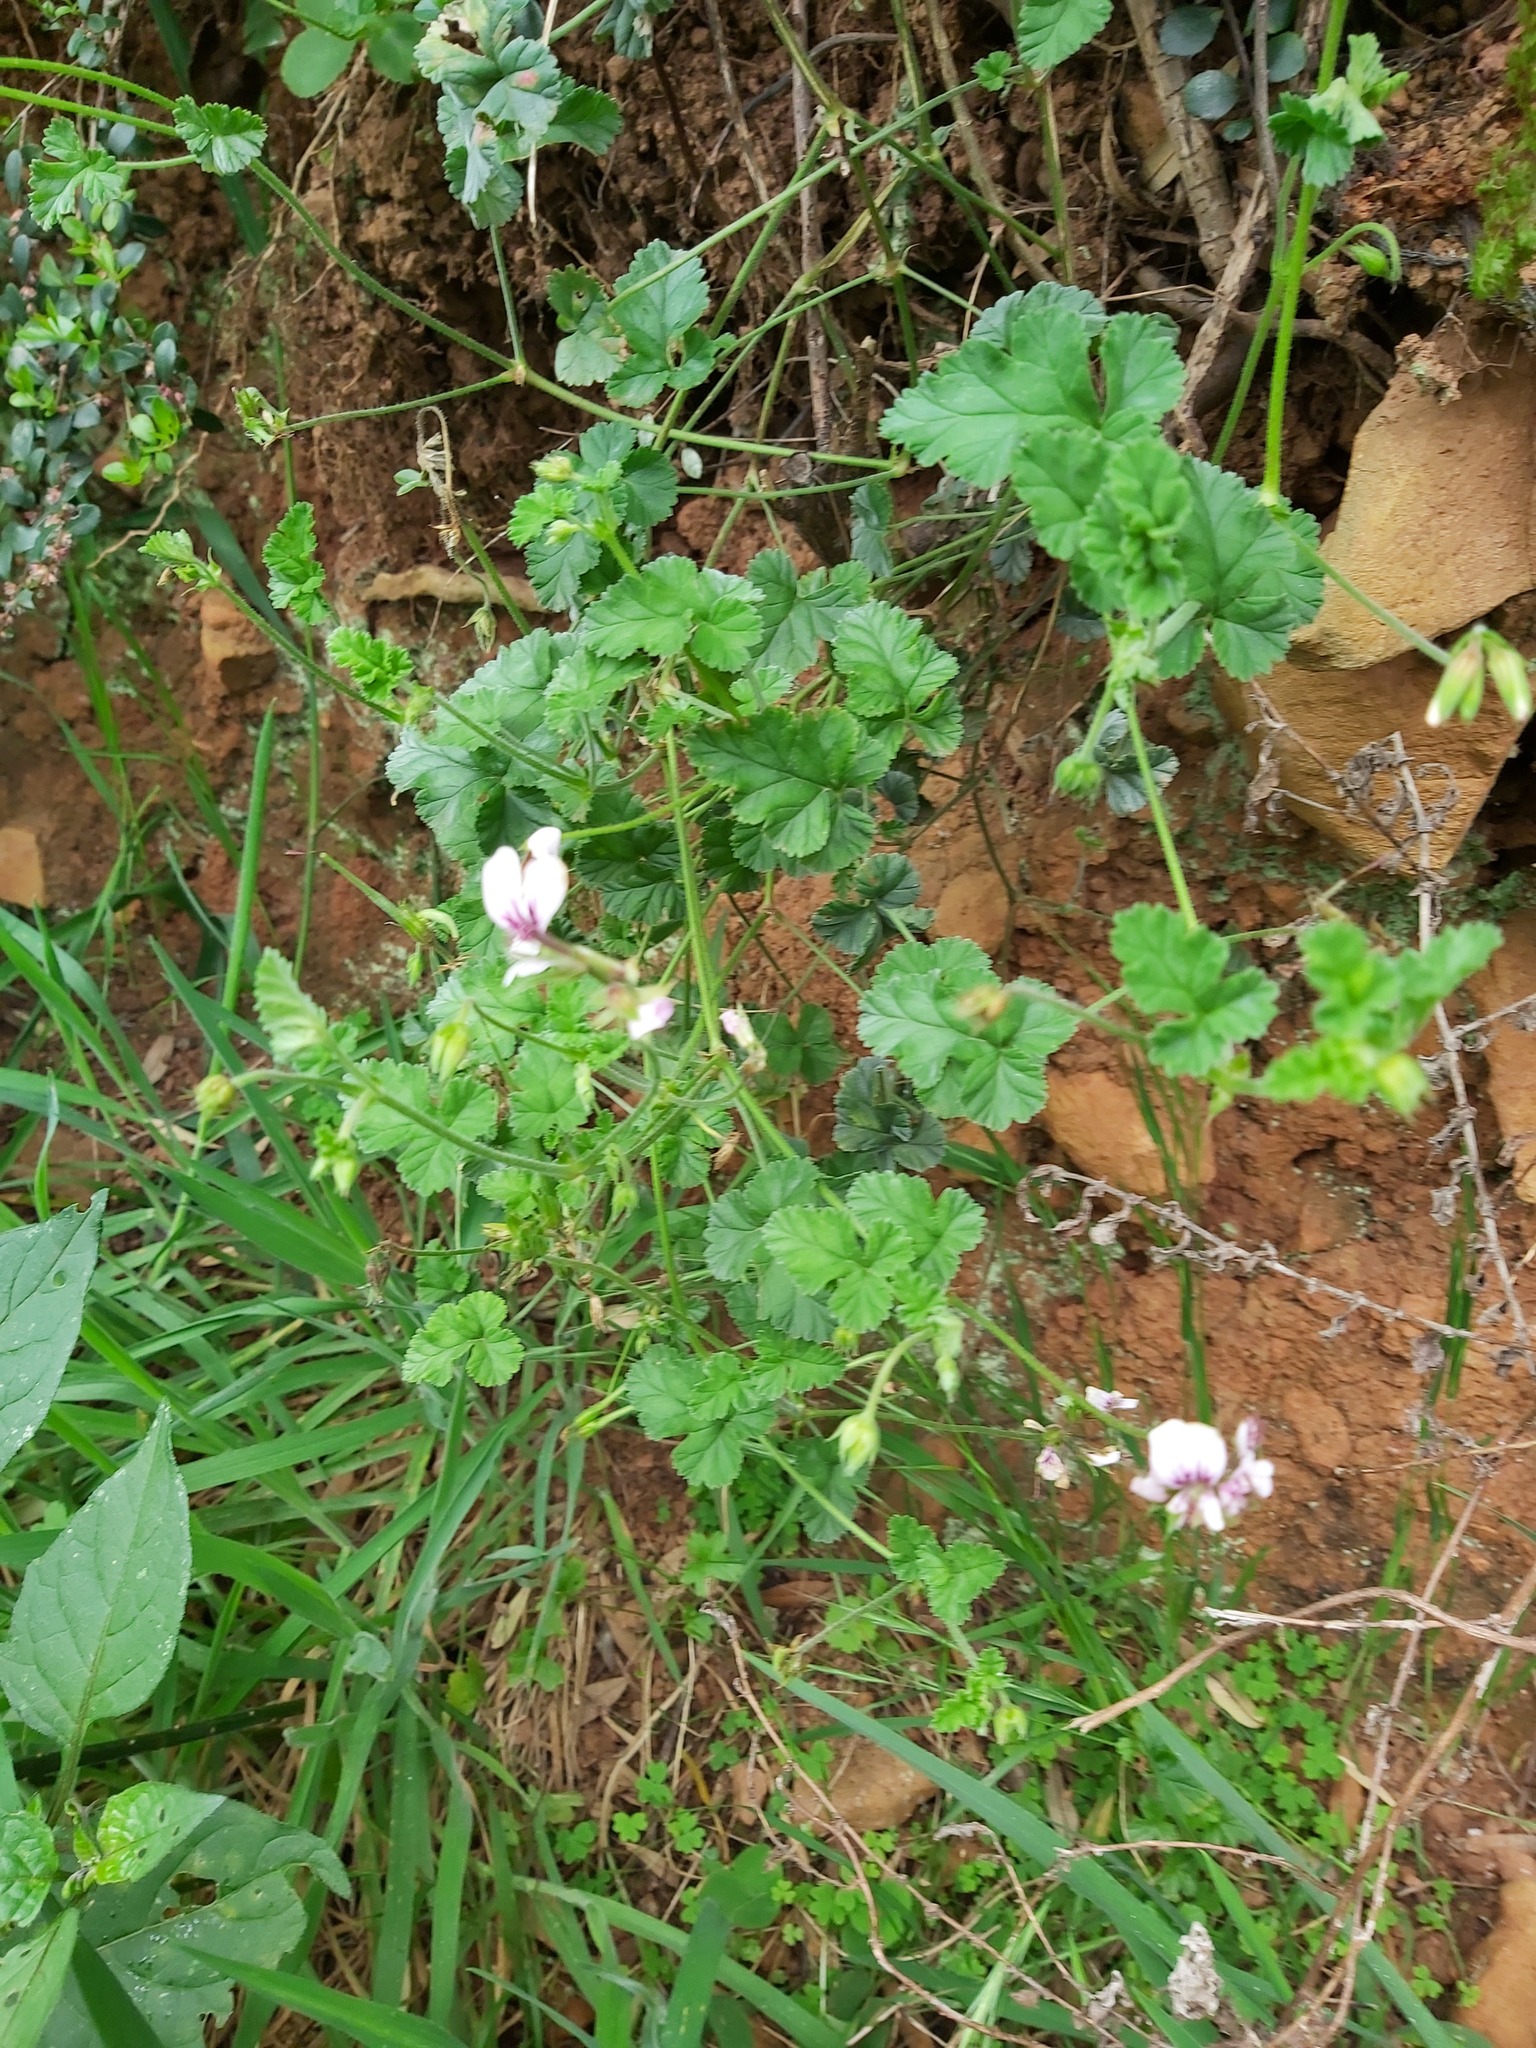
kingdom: Plantae
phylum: Tracheophyta
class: Magnoliopsida
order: Geraniales
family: Geraniaceae
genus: Pelargonium
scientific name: Pelargonium candicans
